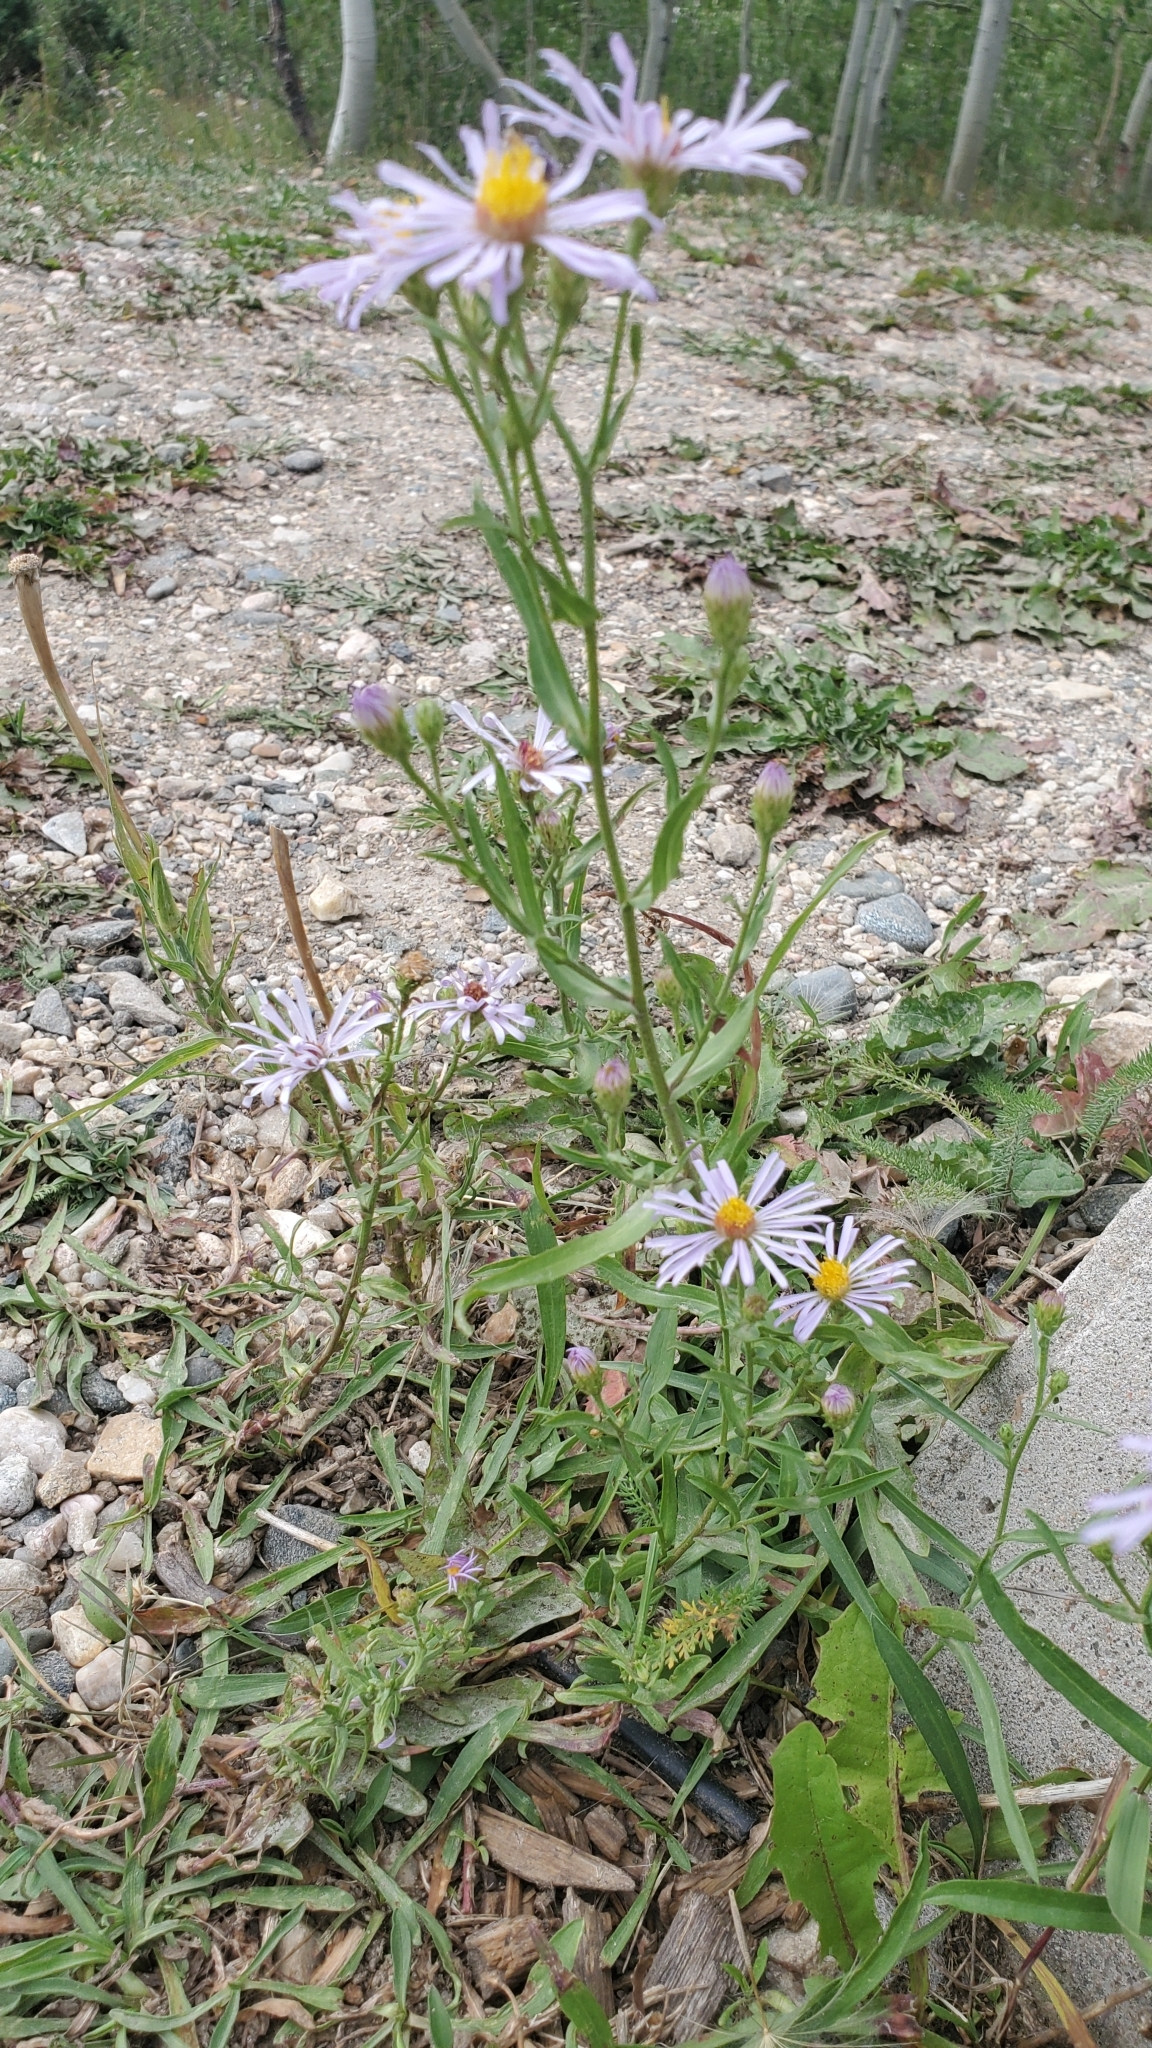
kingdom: Plantae
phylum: Tracheophyta
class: Magnoliopsida
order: Asterales
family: Asteraceae
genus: Symphyotrichum
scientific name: Symphyotrichum ascendens
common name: Intermountain aster
